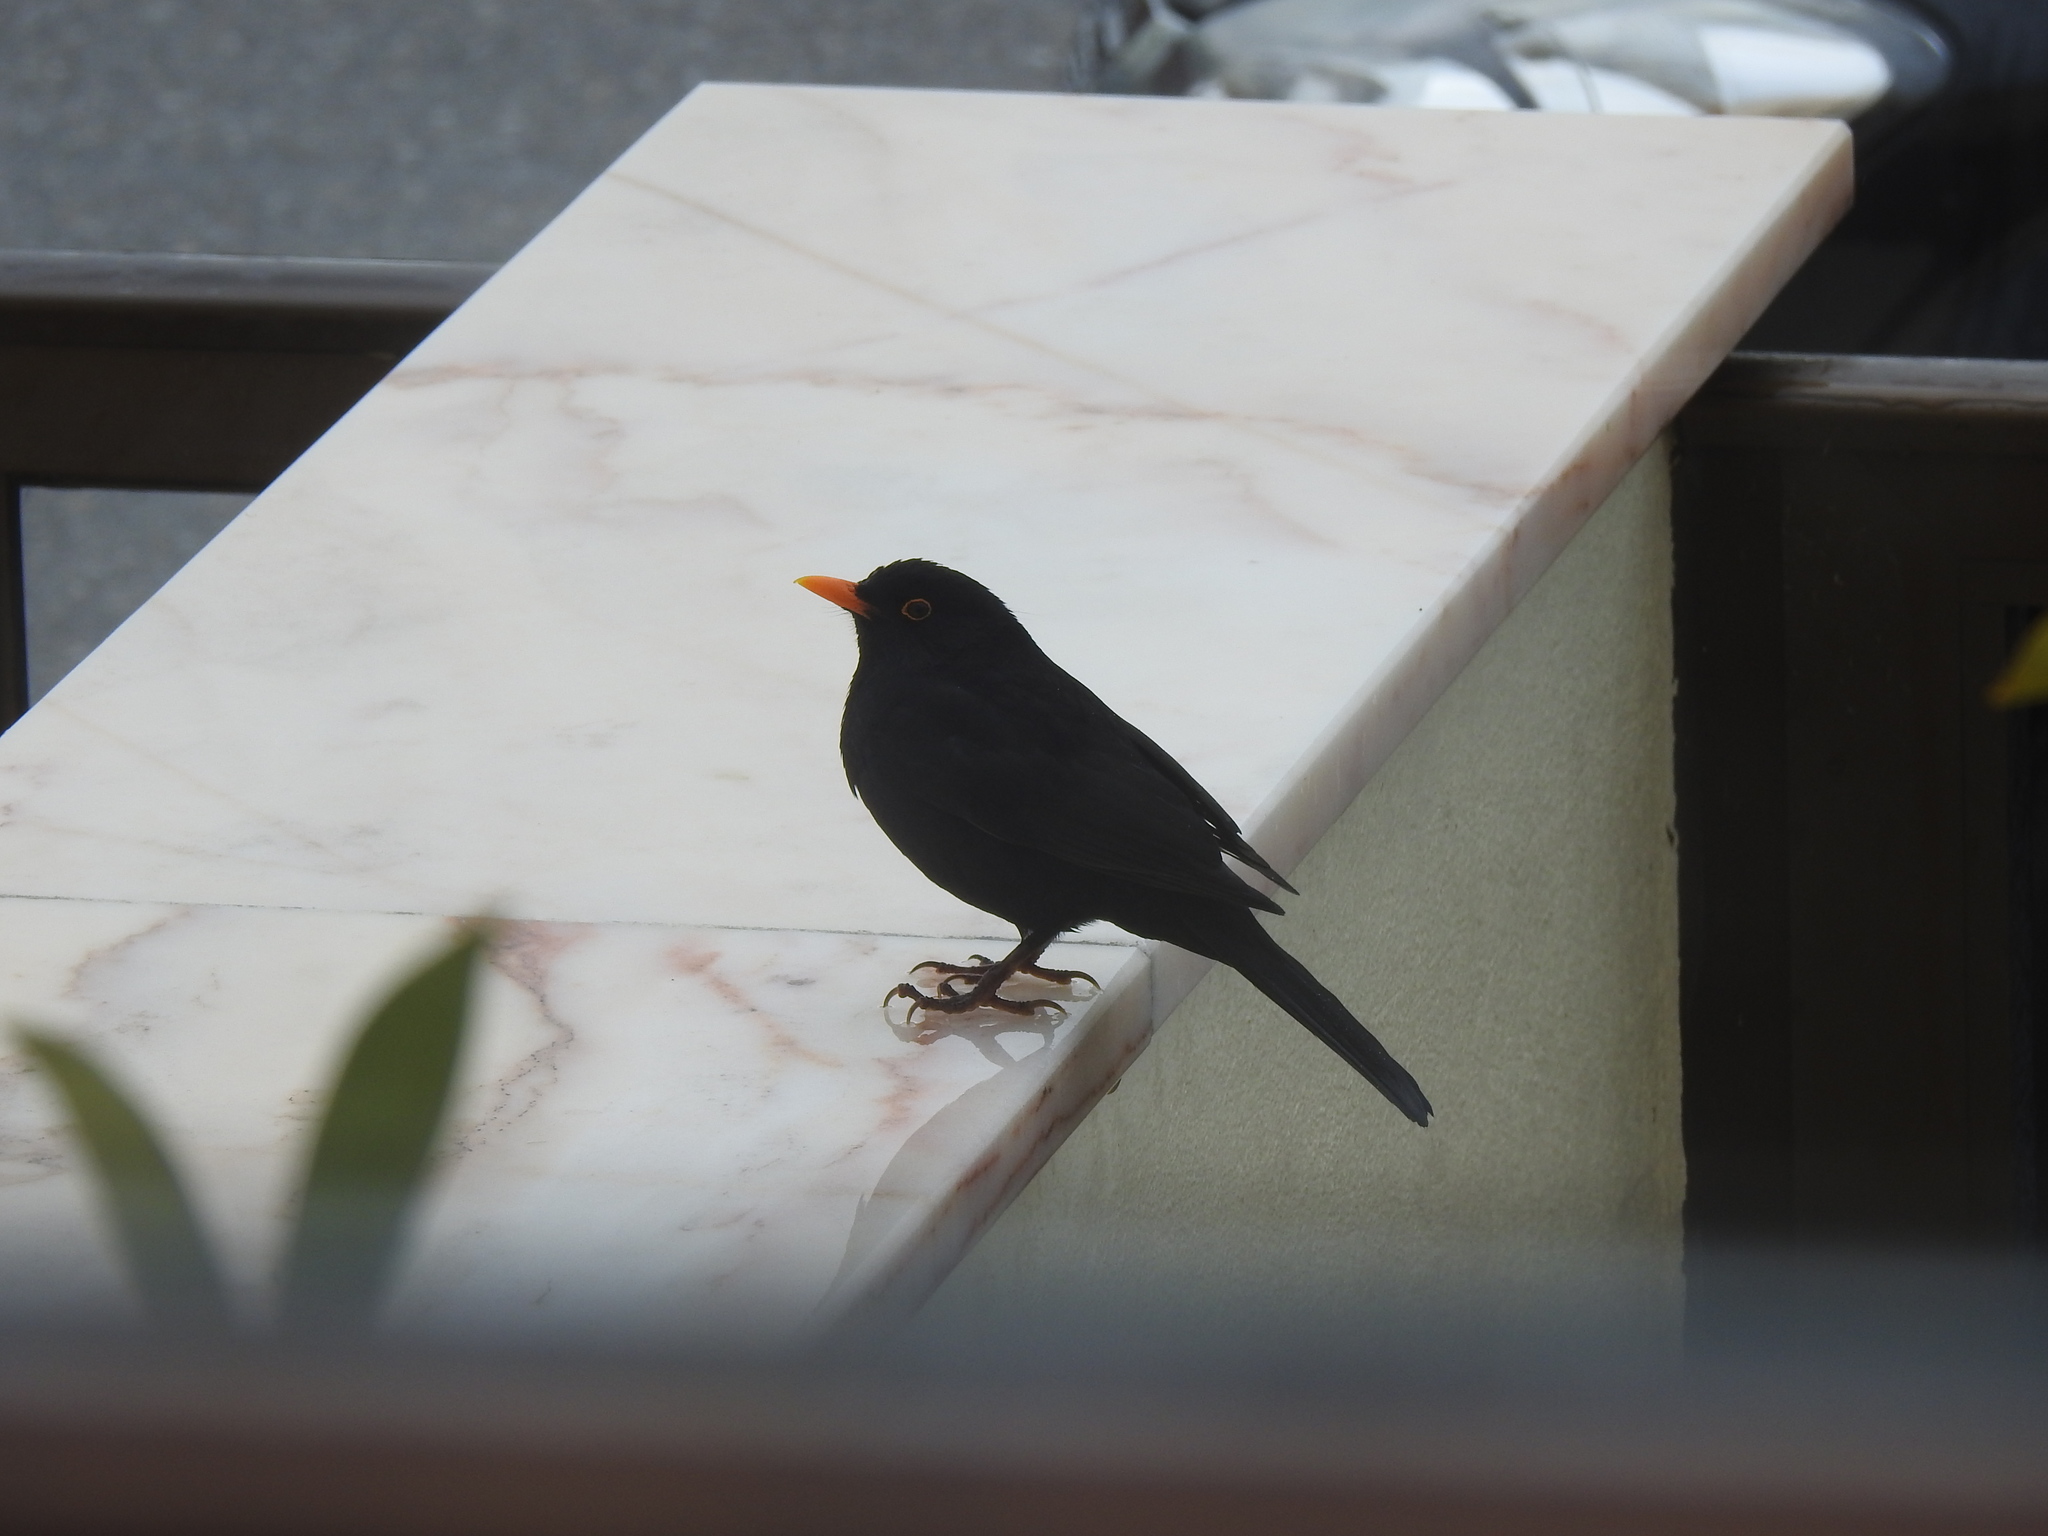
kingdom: Animalia
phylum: Chordata
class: Aves
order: Passeriformes
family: Turdidae
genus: Turdus
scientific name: Turdus merula
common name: Common blackbird
